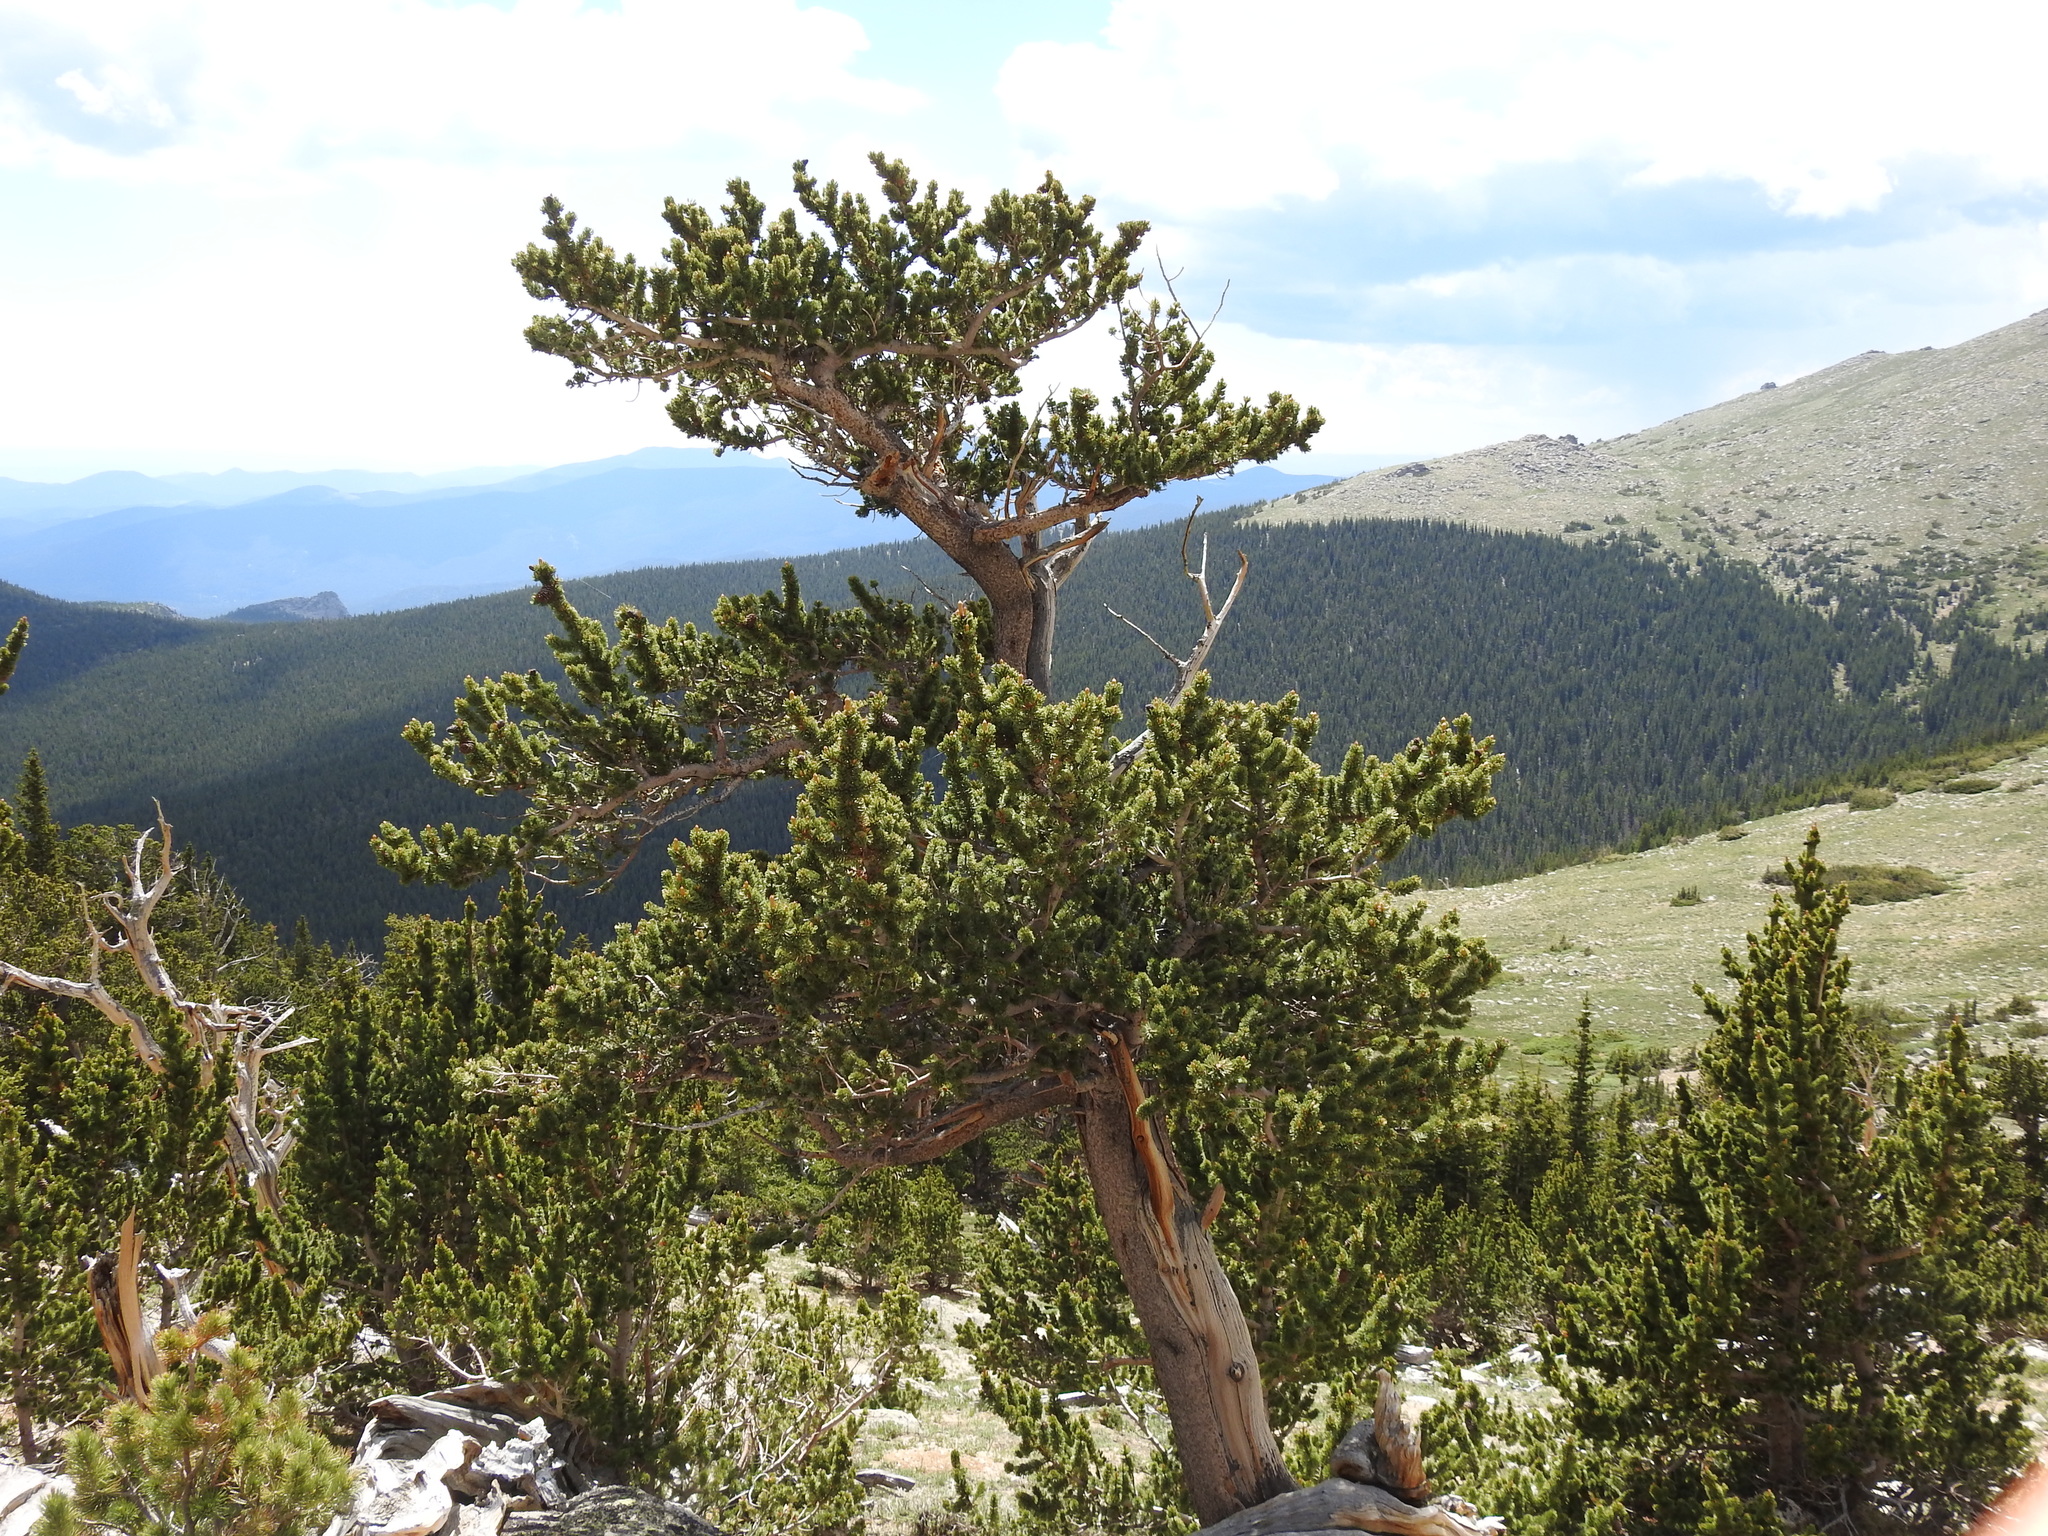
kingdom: Plantae
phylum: Tracheophyta
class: Pinopsida
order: Pinales
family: Pinaceae
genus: Pinus
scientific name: Pinus aristata
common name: Colorado bristlecone pine
